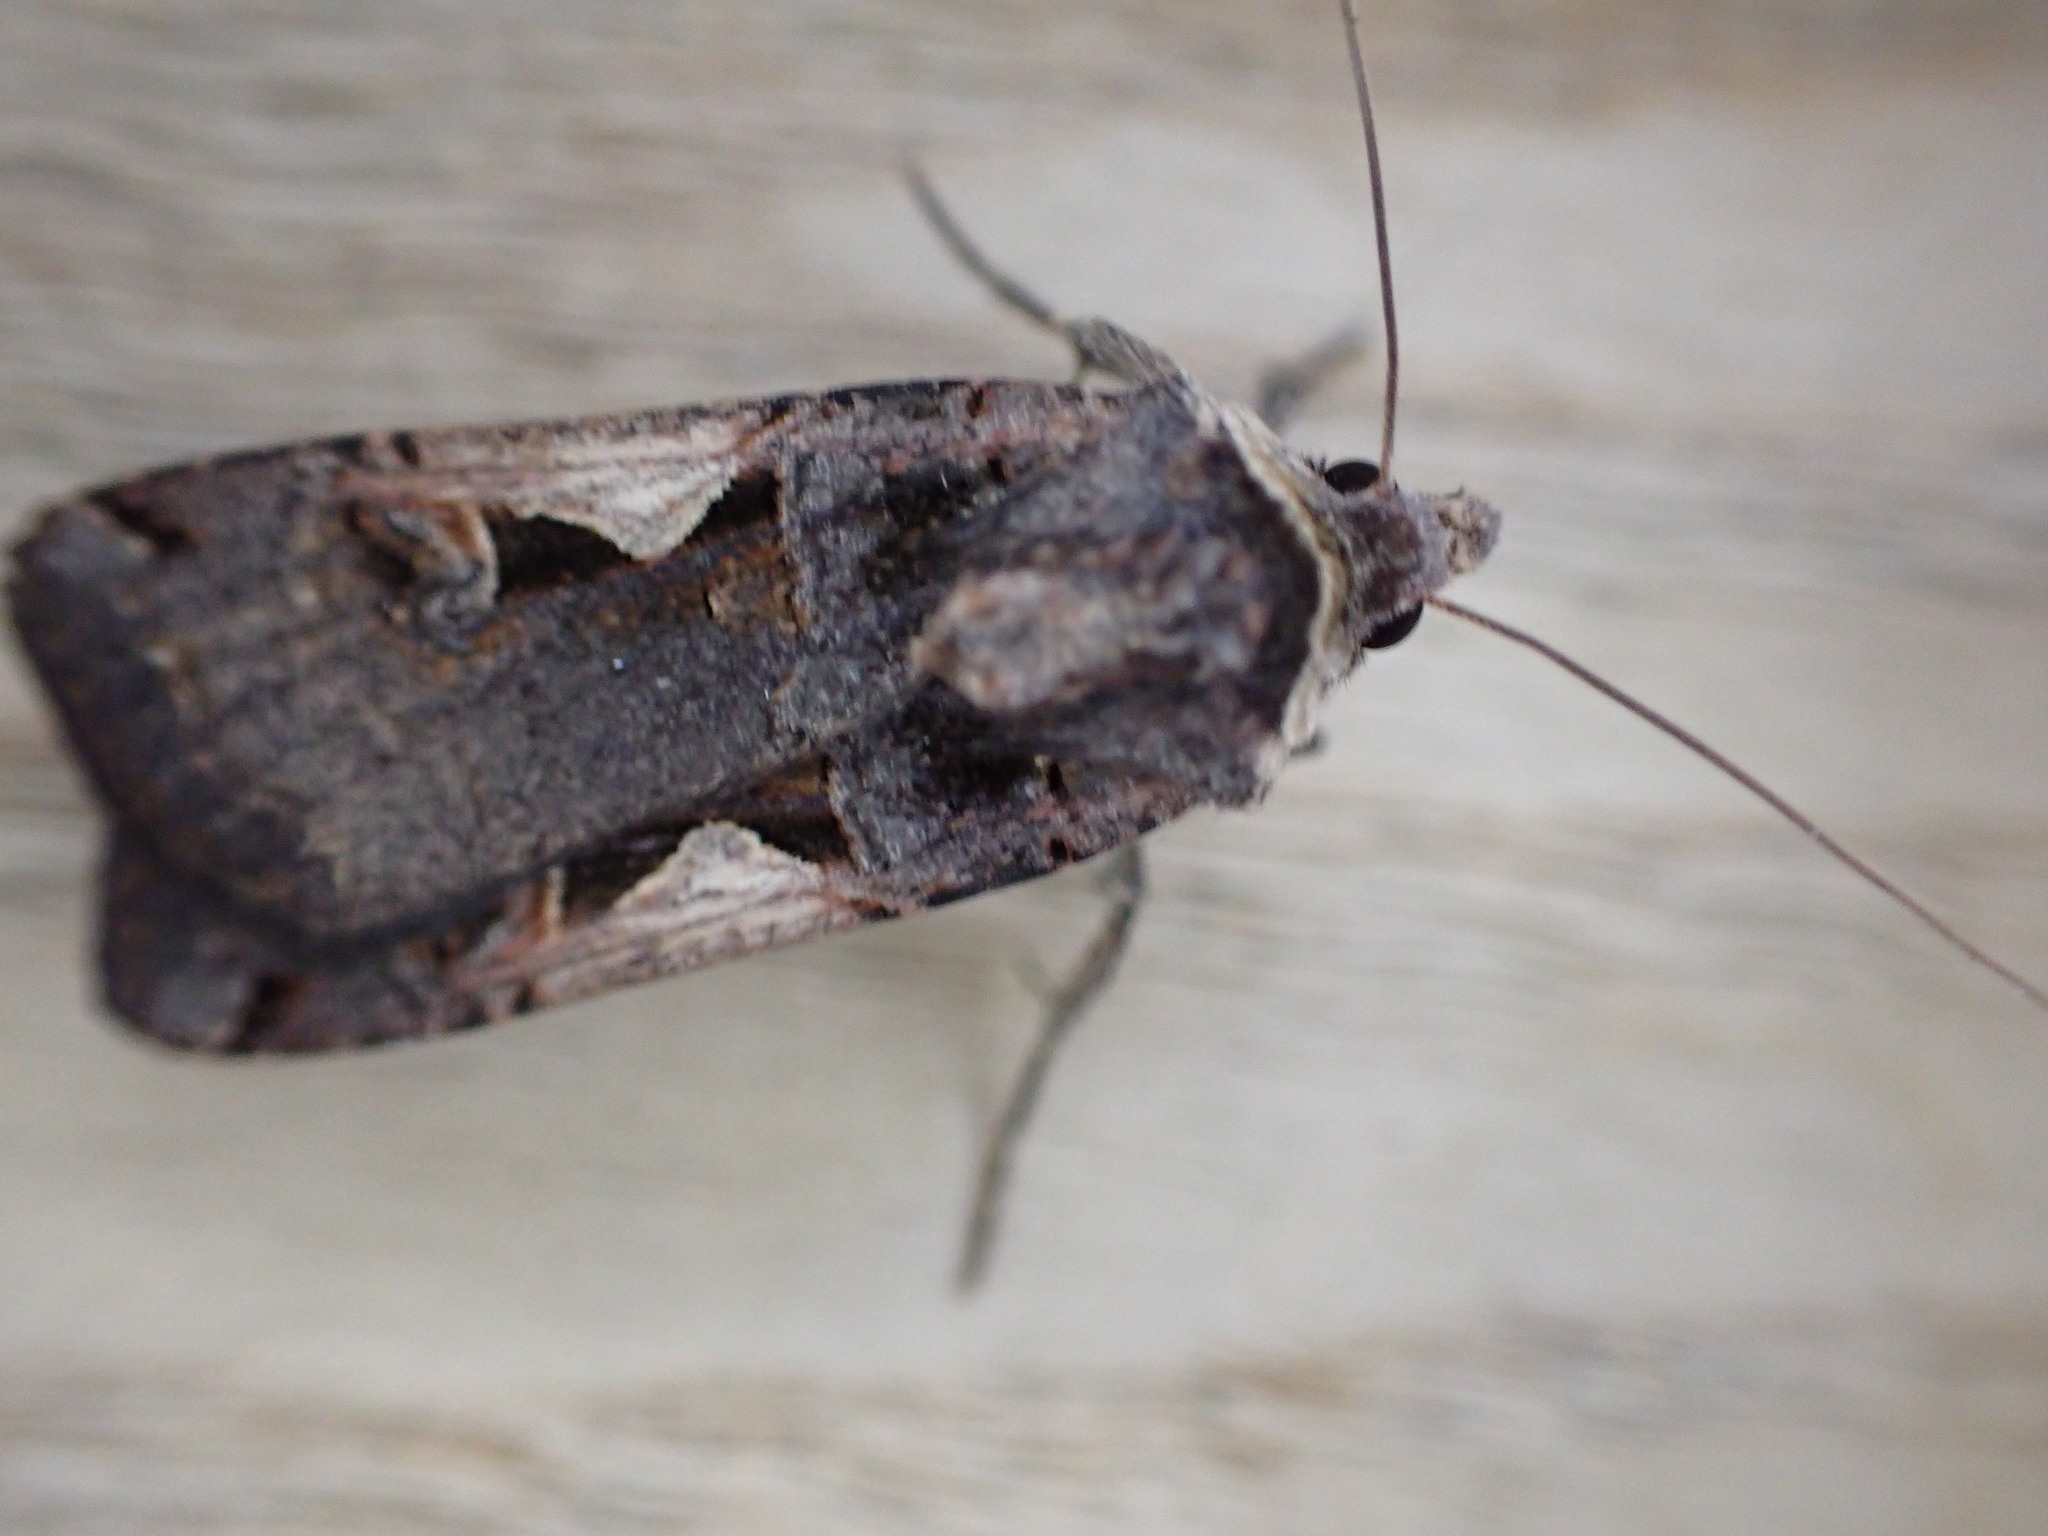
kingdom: Animalia
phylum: Arthropoda
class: Insecta
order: Lepidoptera
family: Noctuidae
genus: Xestia
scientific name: Xestia c-nigrum
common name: Setaceous hebrew character
